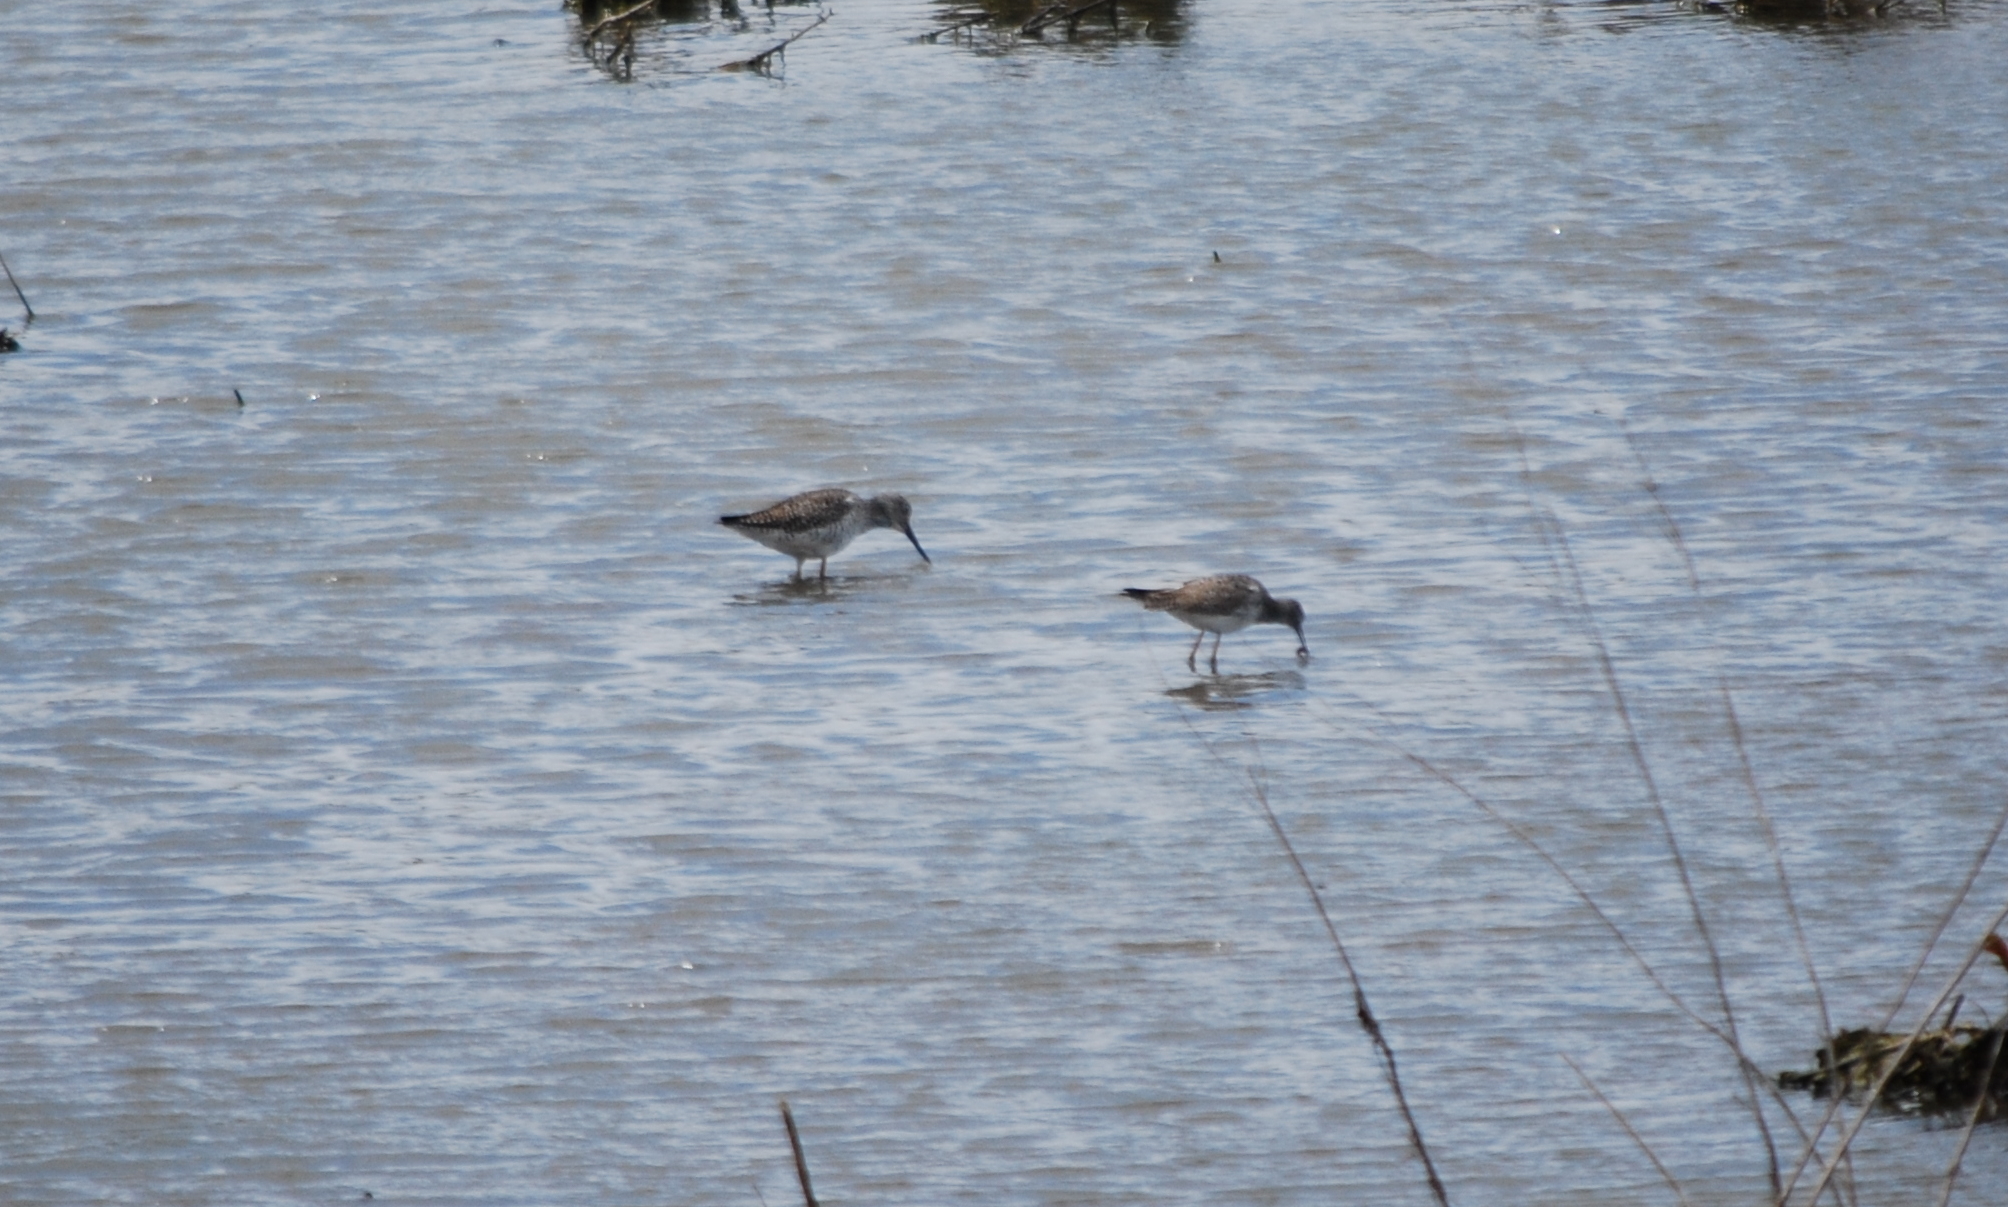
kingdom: Animalia
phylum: Chordata
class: Aves
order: Charadriiformes
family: Scolopacidae
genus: Tringa
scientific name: Tringa melanoleuca
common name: Greater yellowlegs
